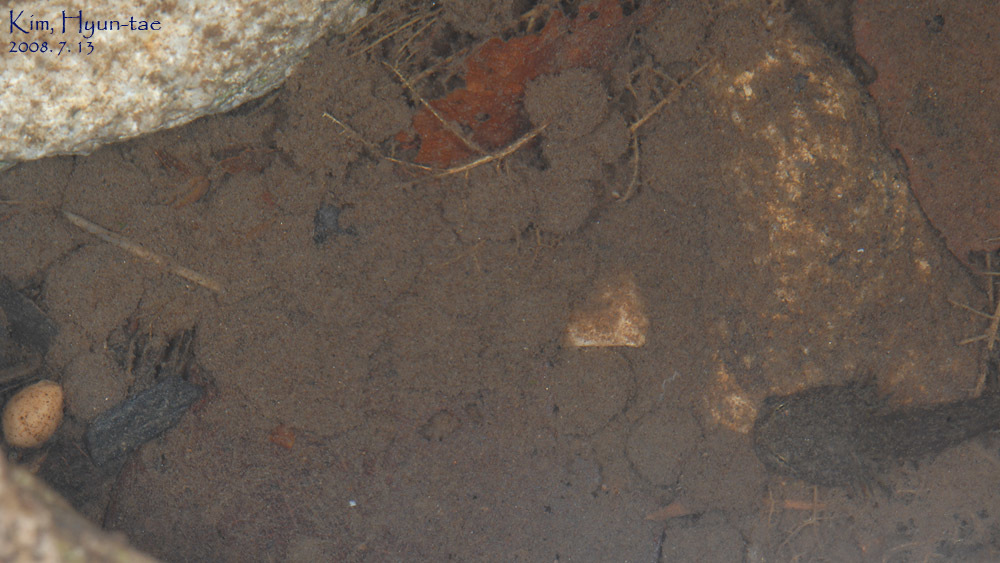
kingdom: Animalia
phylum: Chordata
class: Amphibia
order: Caudata
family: Hynobiidae
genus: Hynobius
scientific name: Hynobius leechii
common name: Gensan salamander
